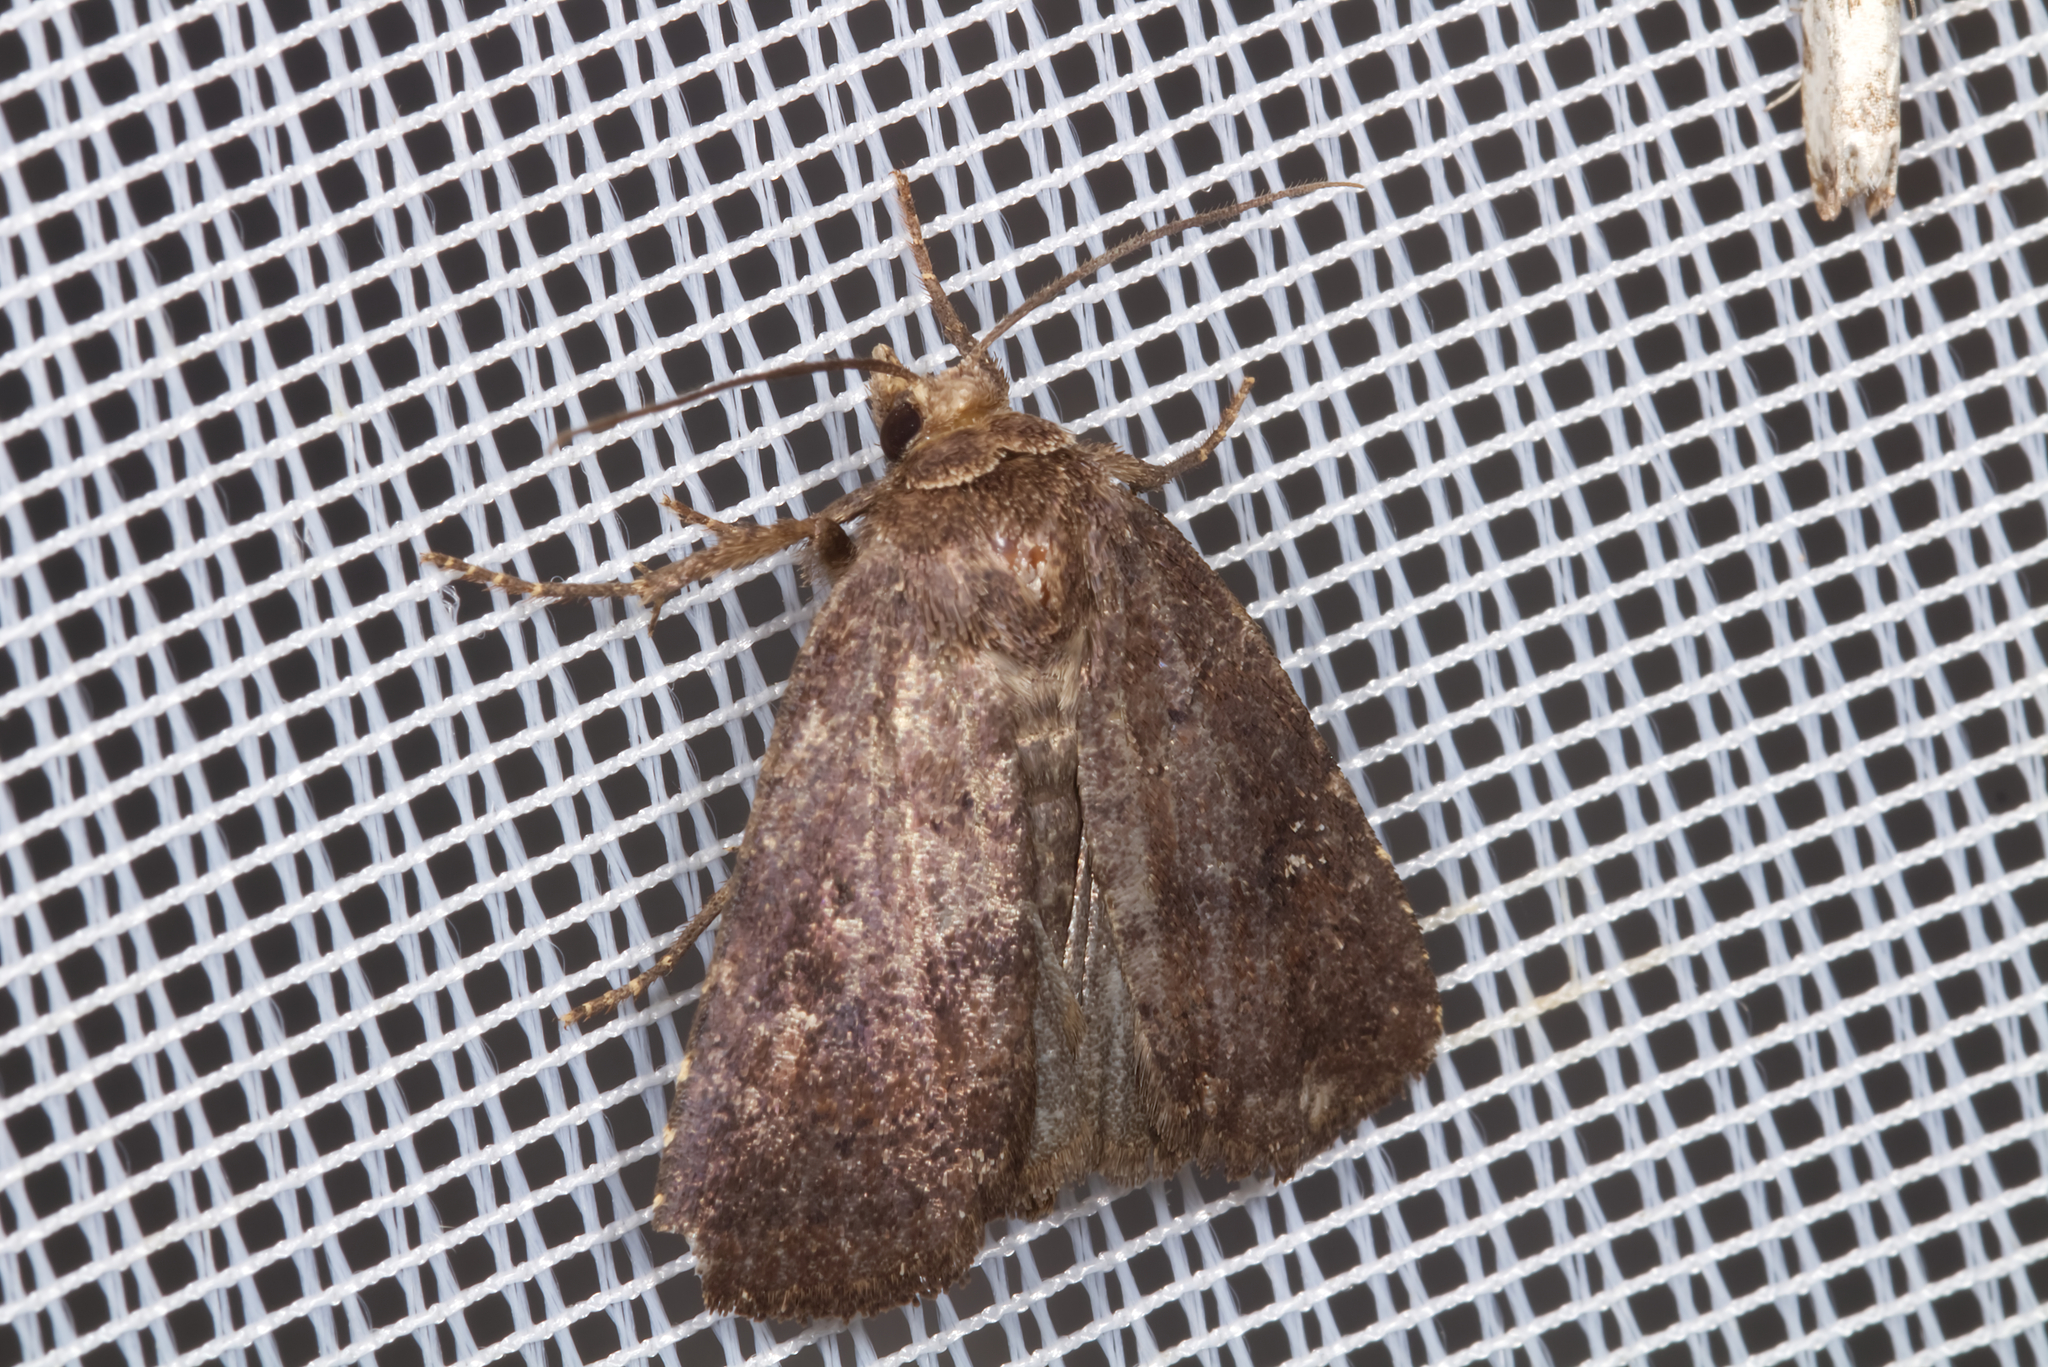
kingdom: Animalia
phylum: Arthropoda
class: Insecta
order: Lepidoptera
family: Noctuidae
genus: Charanyca
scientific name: Charanyca ferruginea
